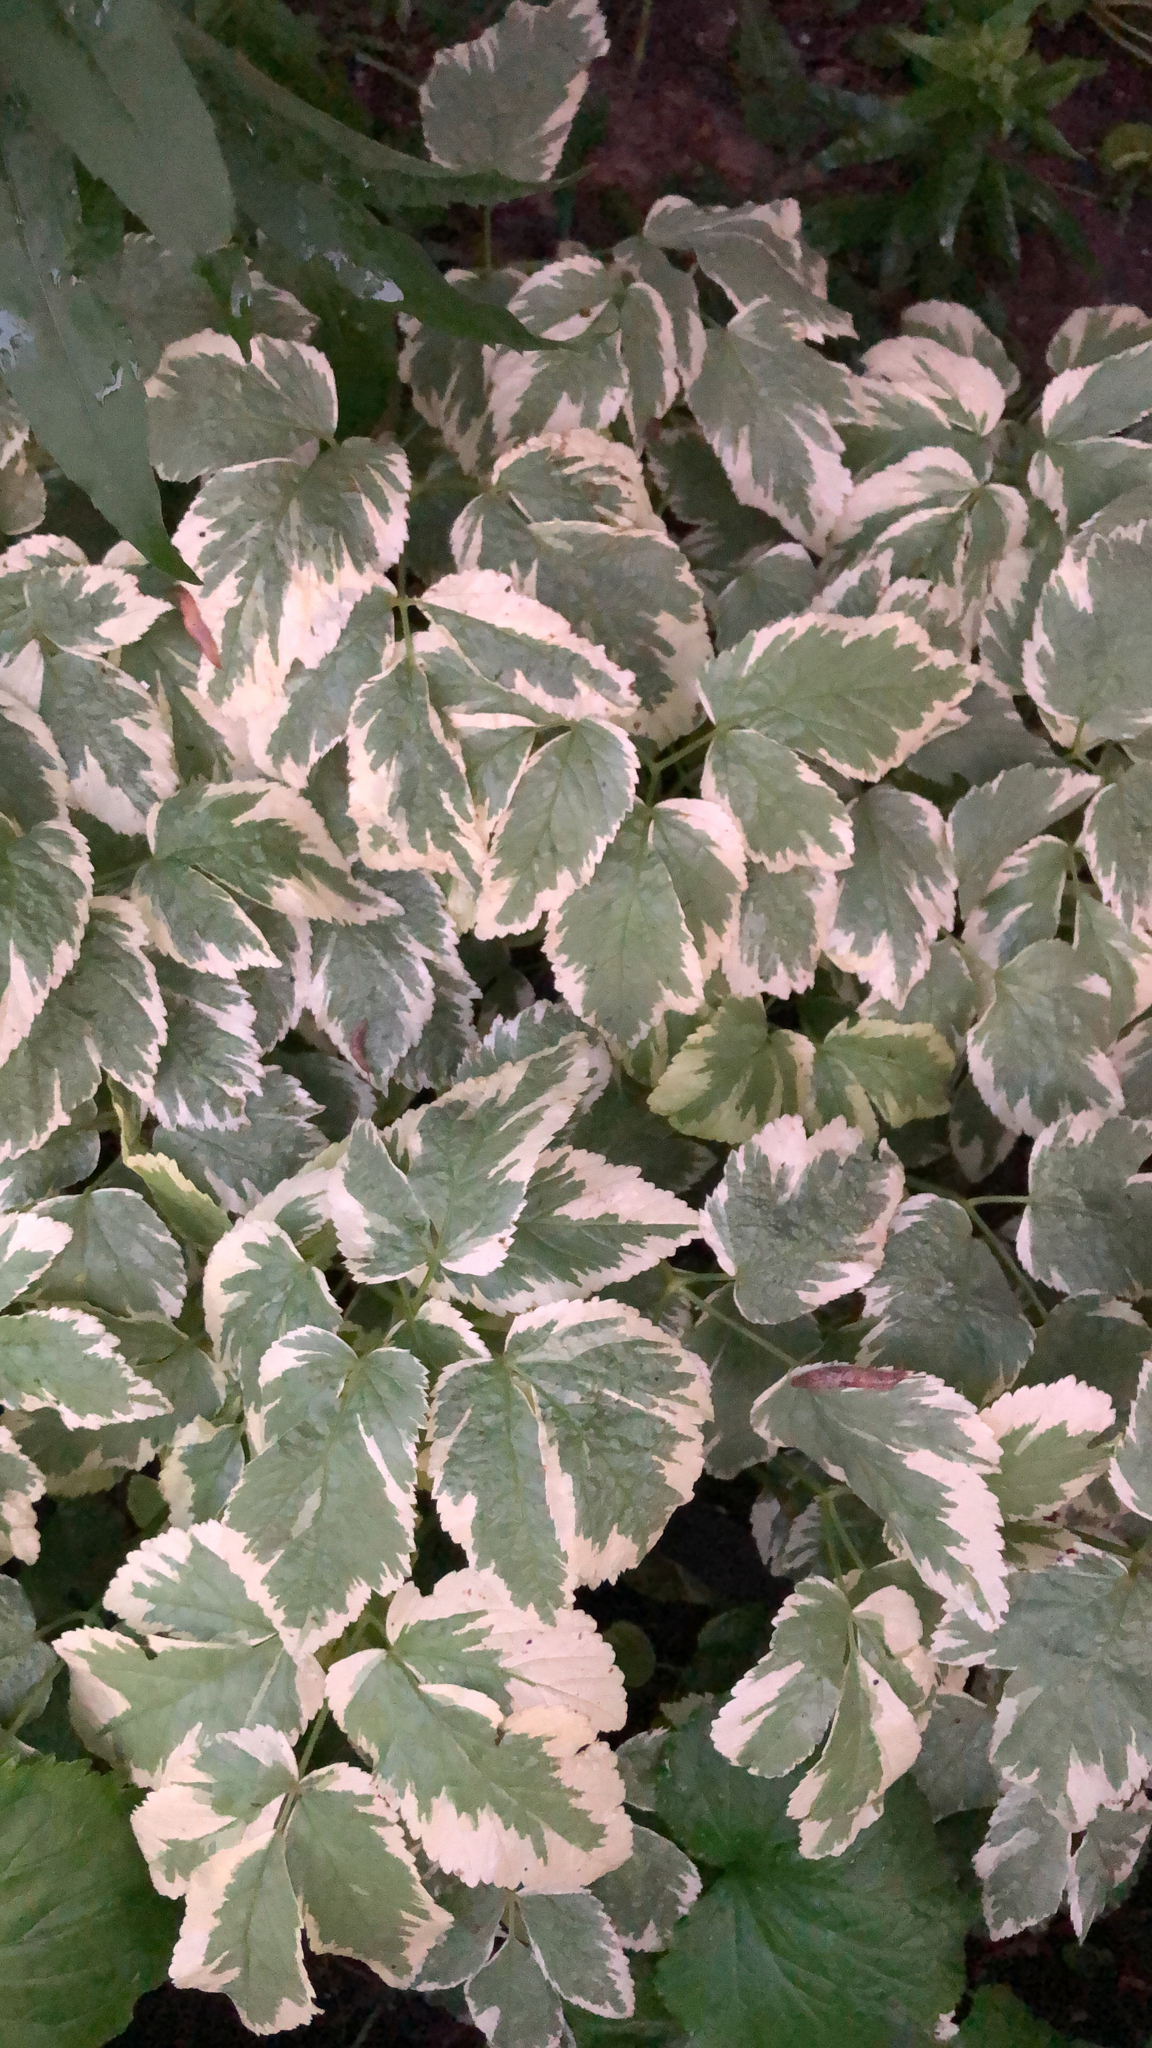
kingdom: Plantae
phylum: Tracheophyta
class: Magnoliopsida
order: Apiales
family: Apiaceae
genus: Aegopodium
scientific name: Aegopodium podagraria
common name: Ground-elder
